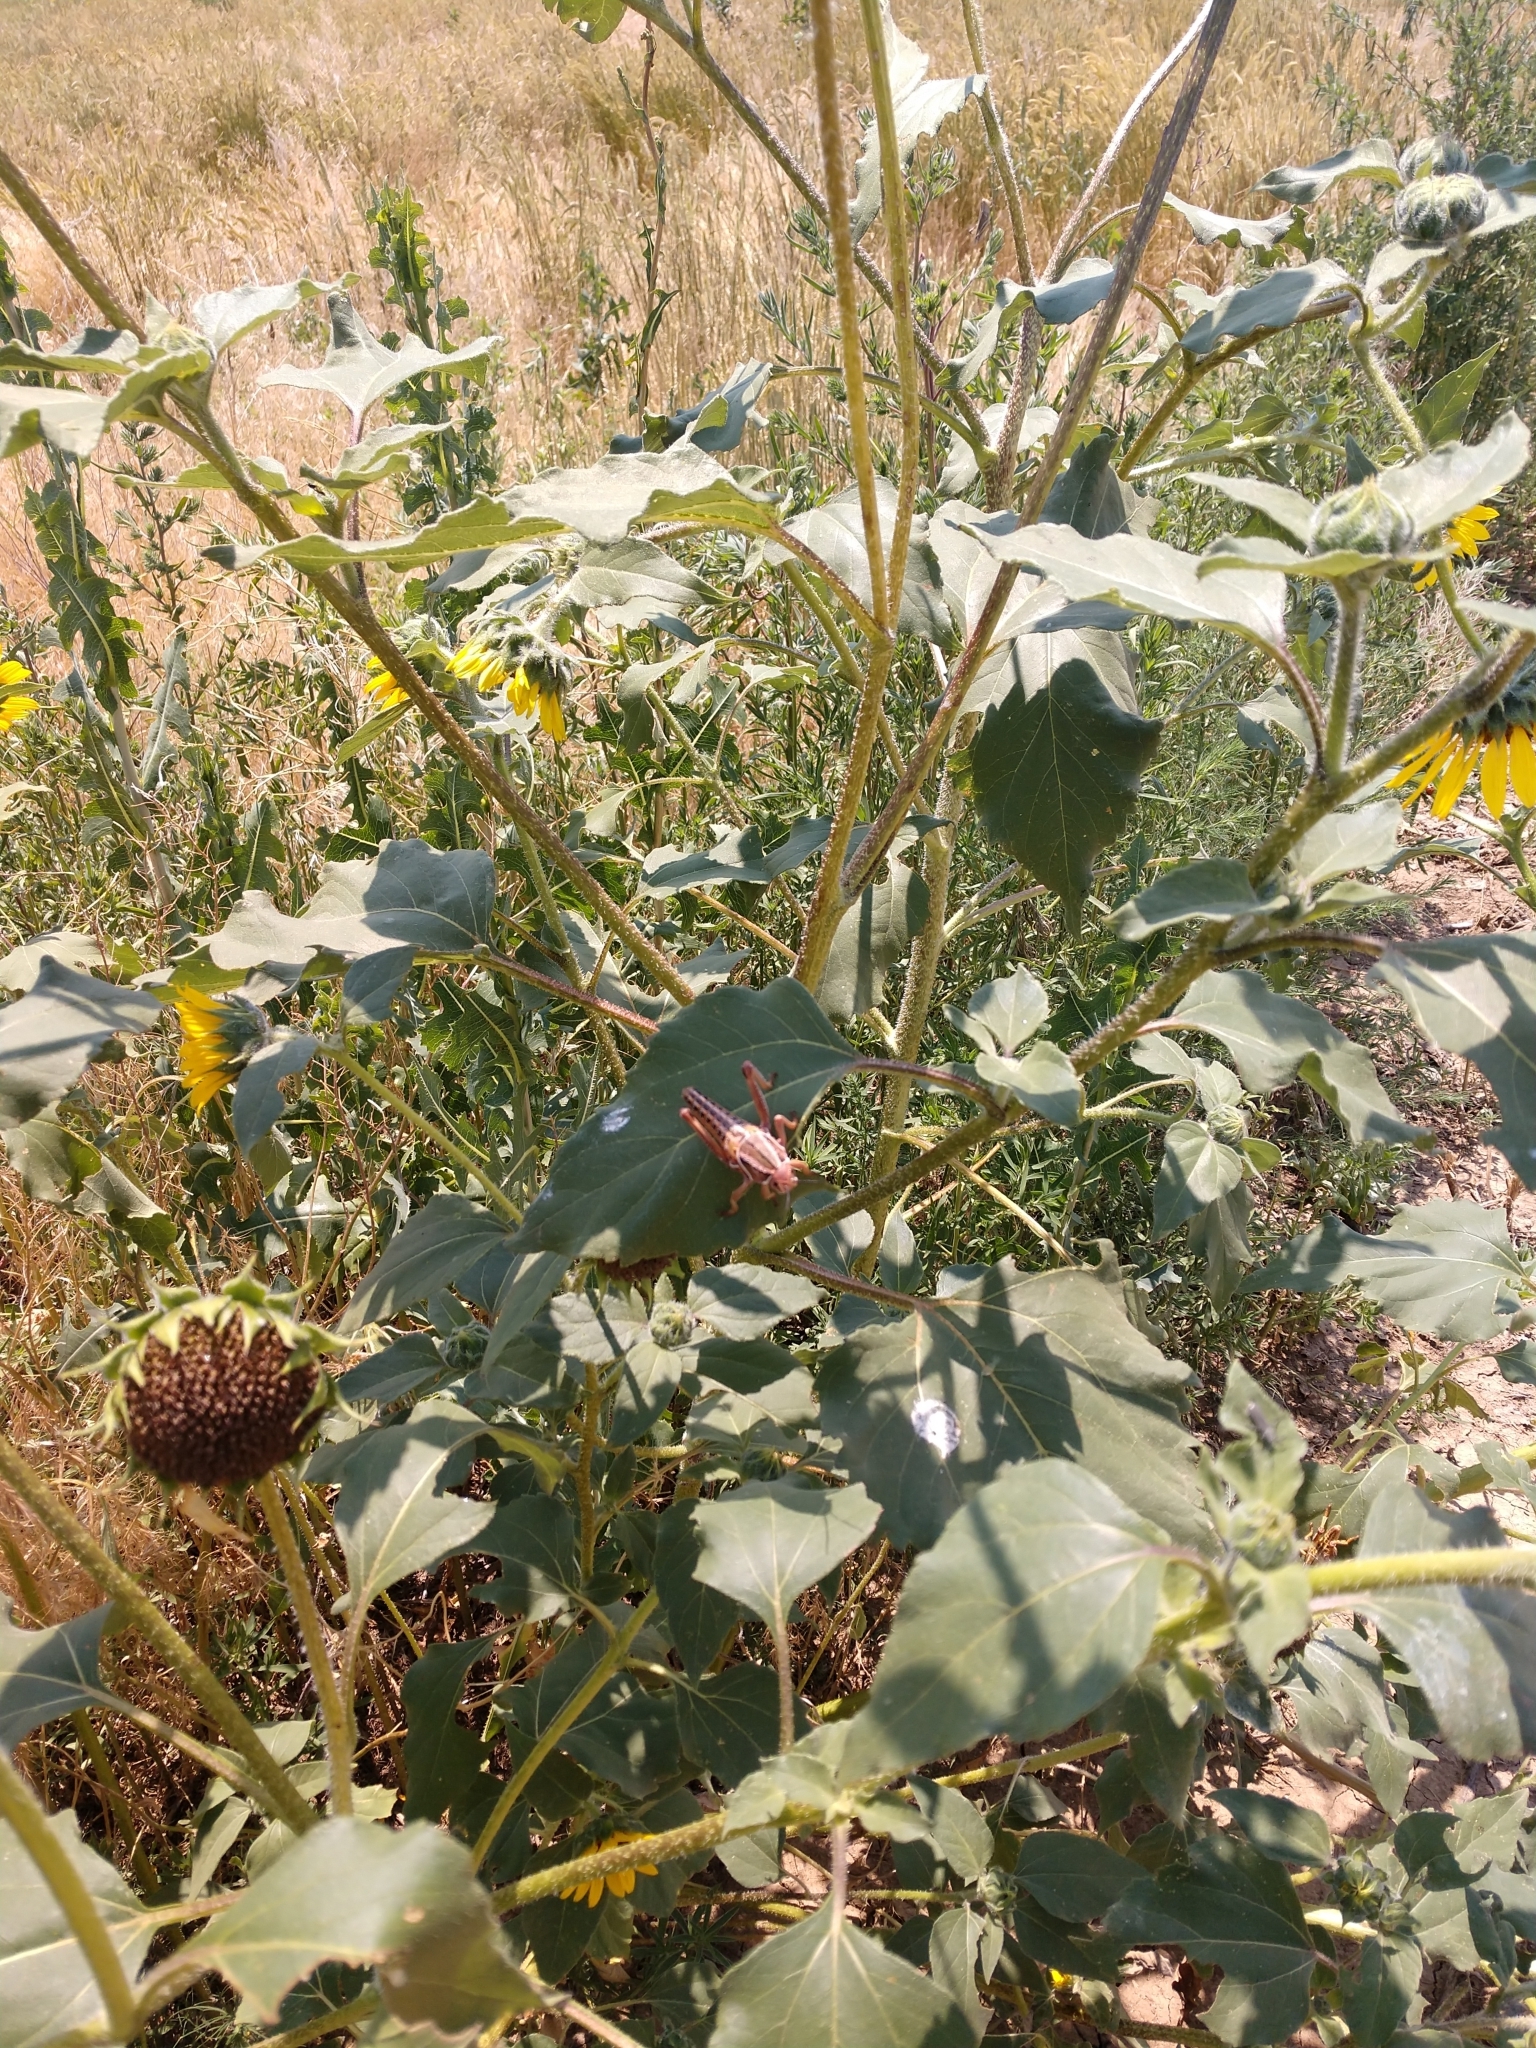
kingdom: Animalia
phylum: Arthropoda
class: Insecta
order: Orthoptera
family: Romaleidae
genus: Brachystola
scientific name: Brachystola magna
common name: Plains lubber grasshopper
